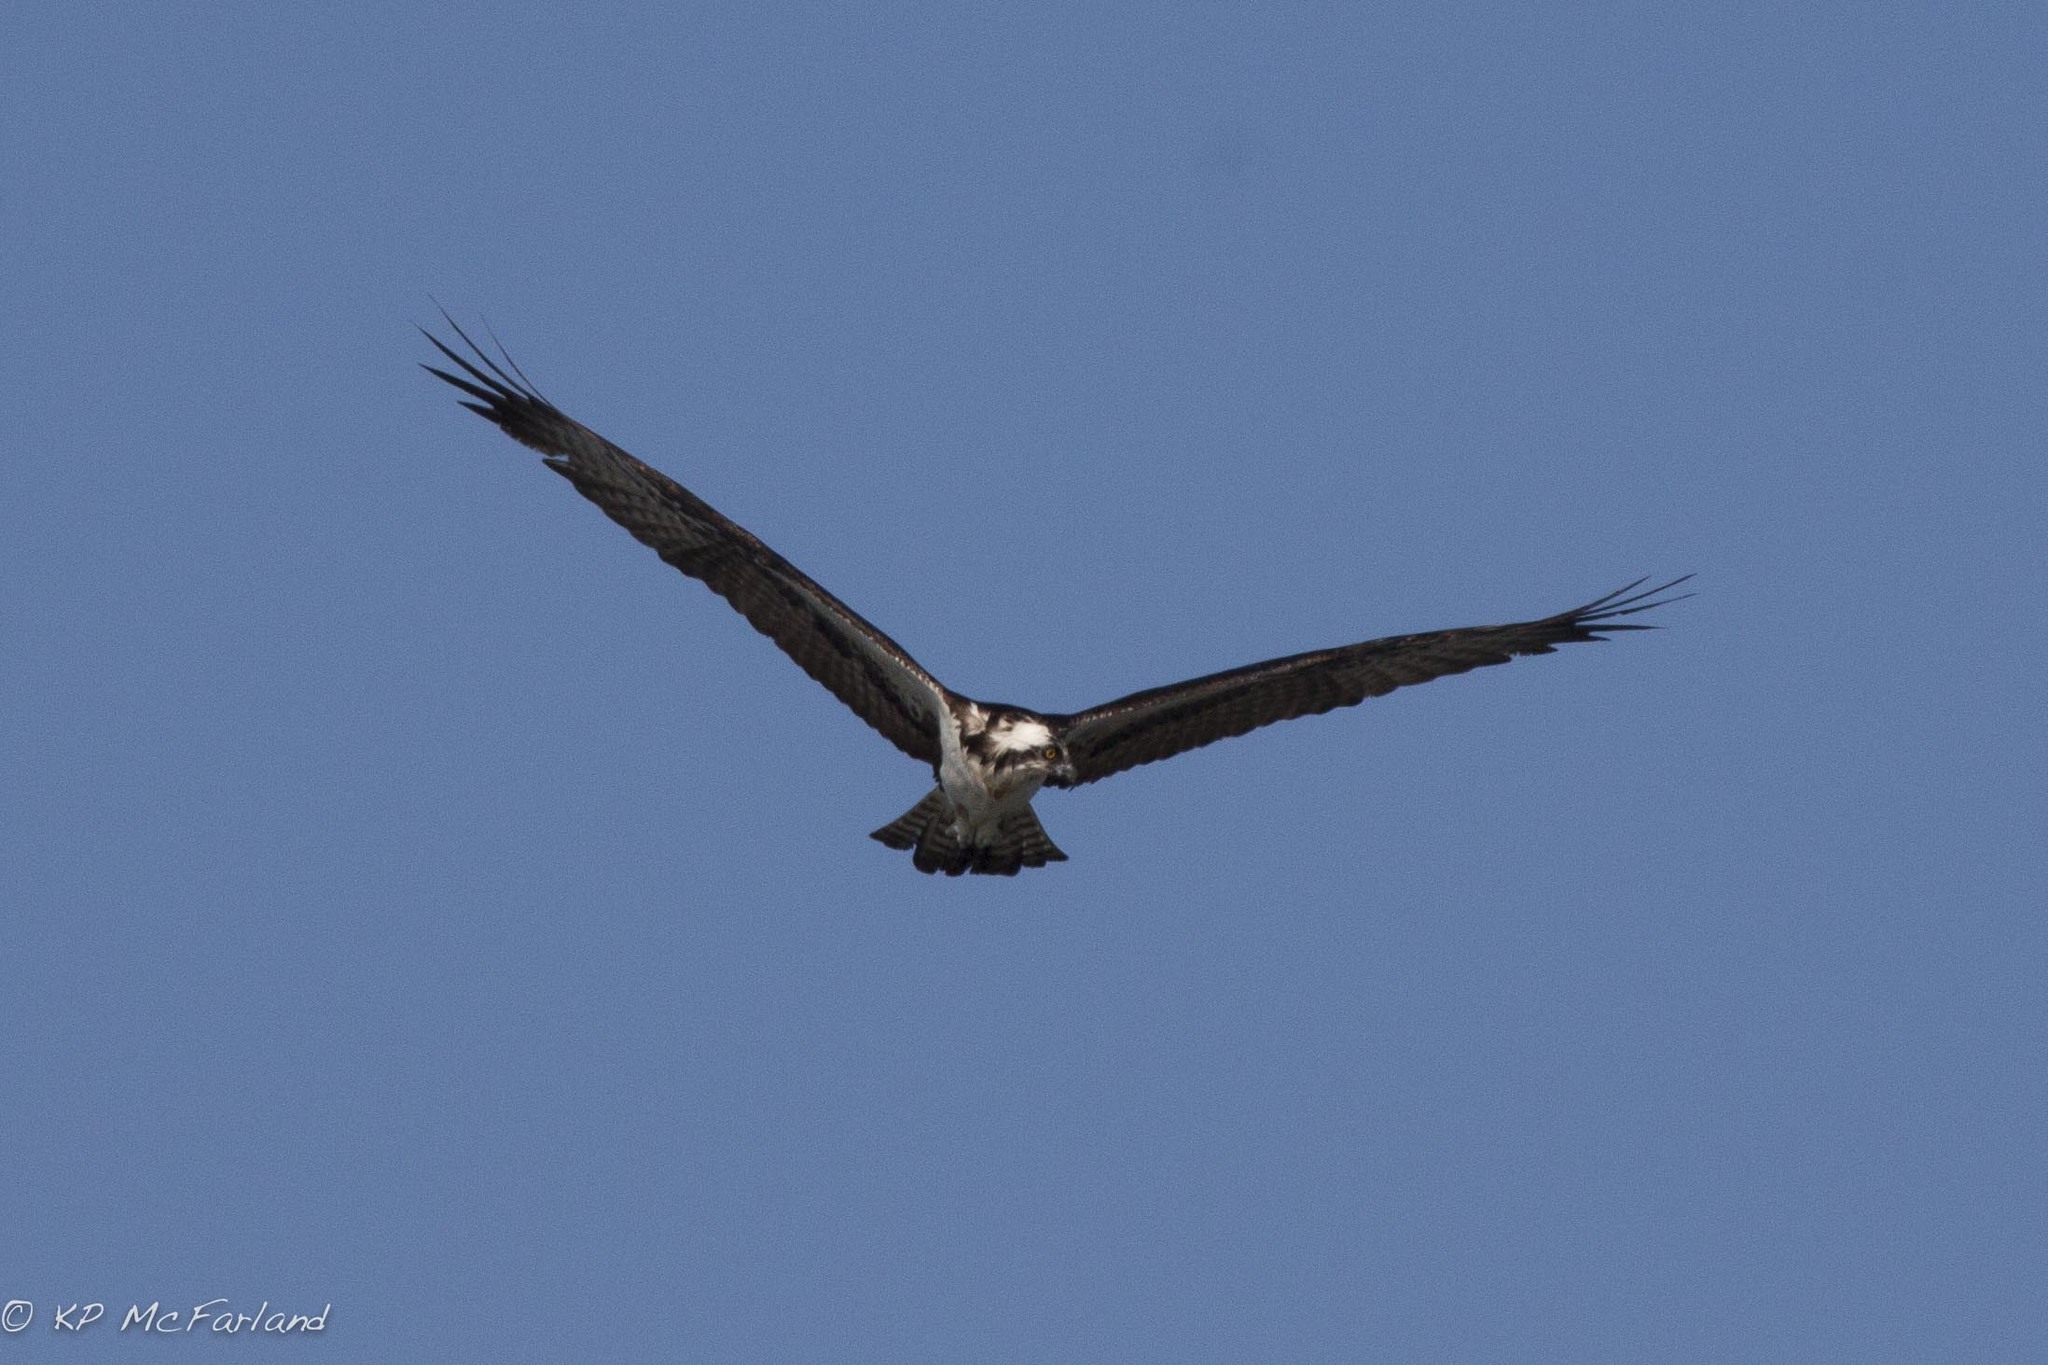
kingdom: Animalia
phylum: Chordata
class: Aves
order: Accipitriformes
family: Pandionidae
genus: Pandion
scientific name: Pandion haliaetus
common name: Osprey
